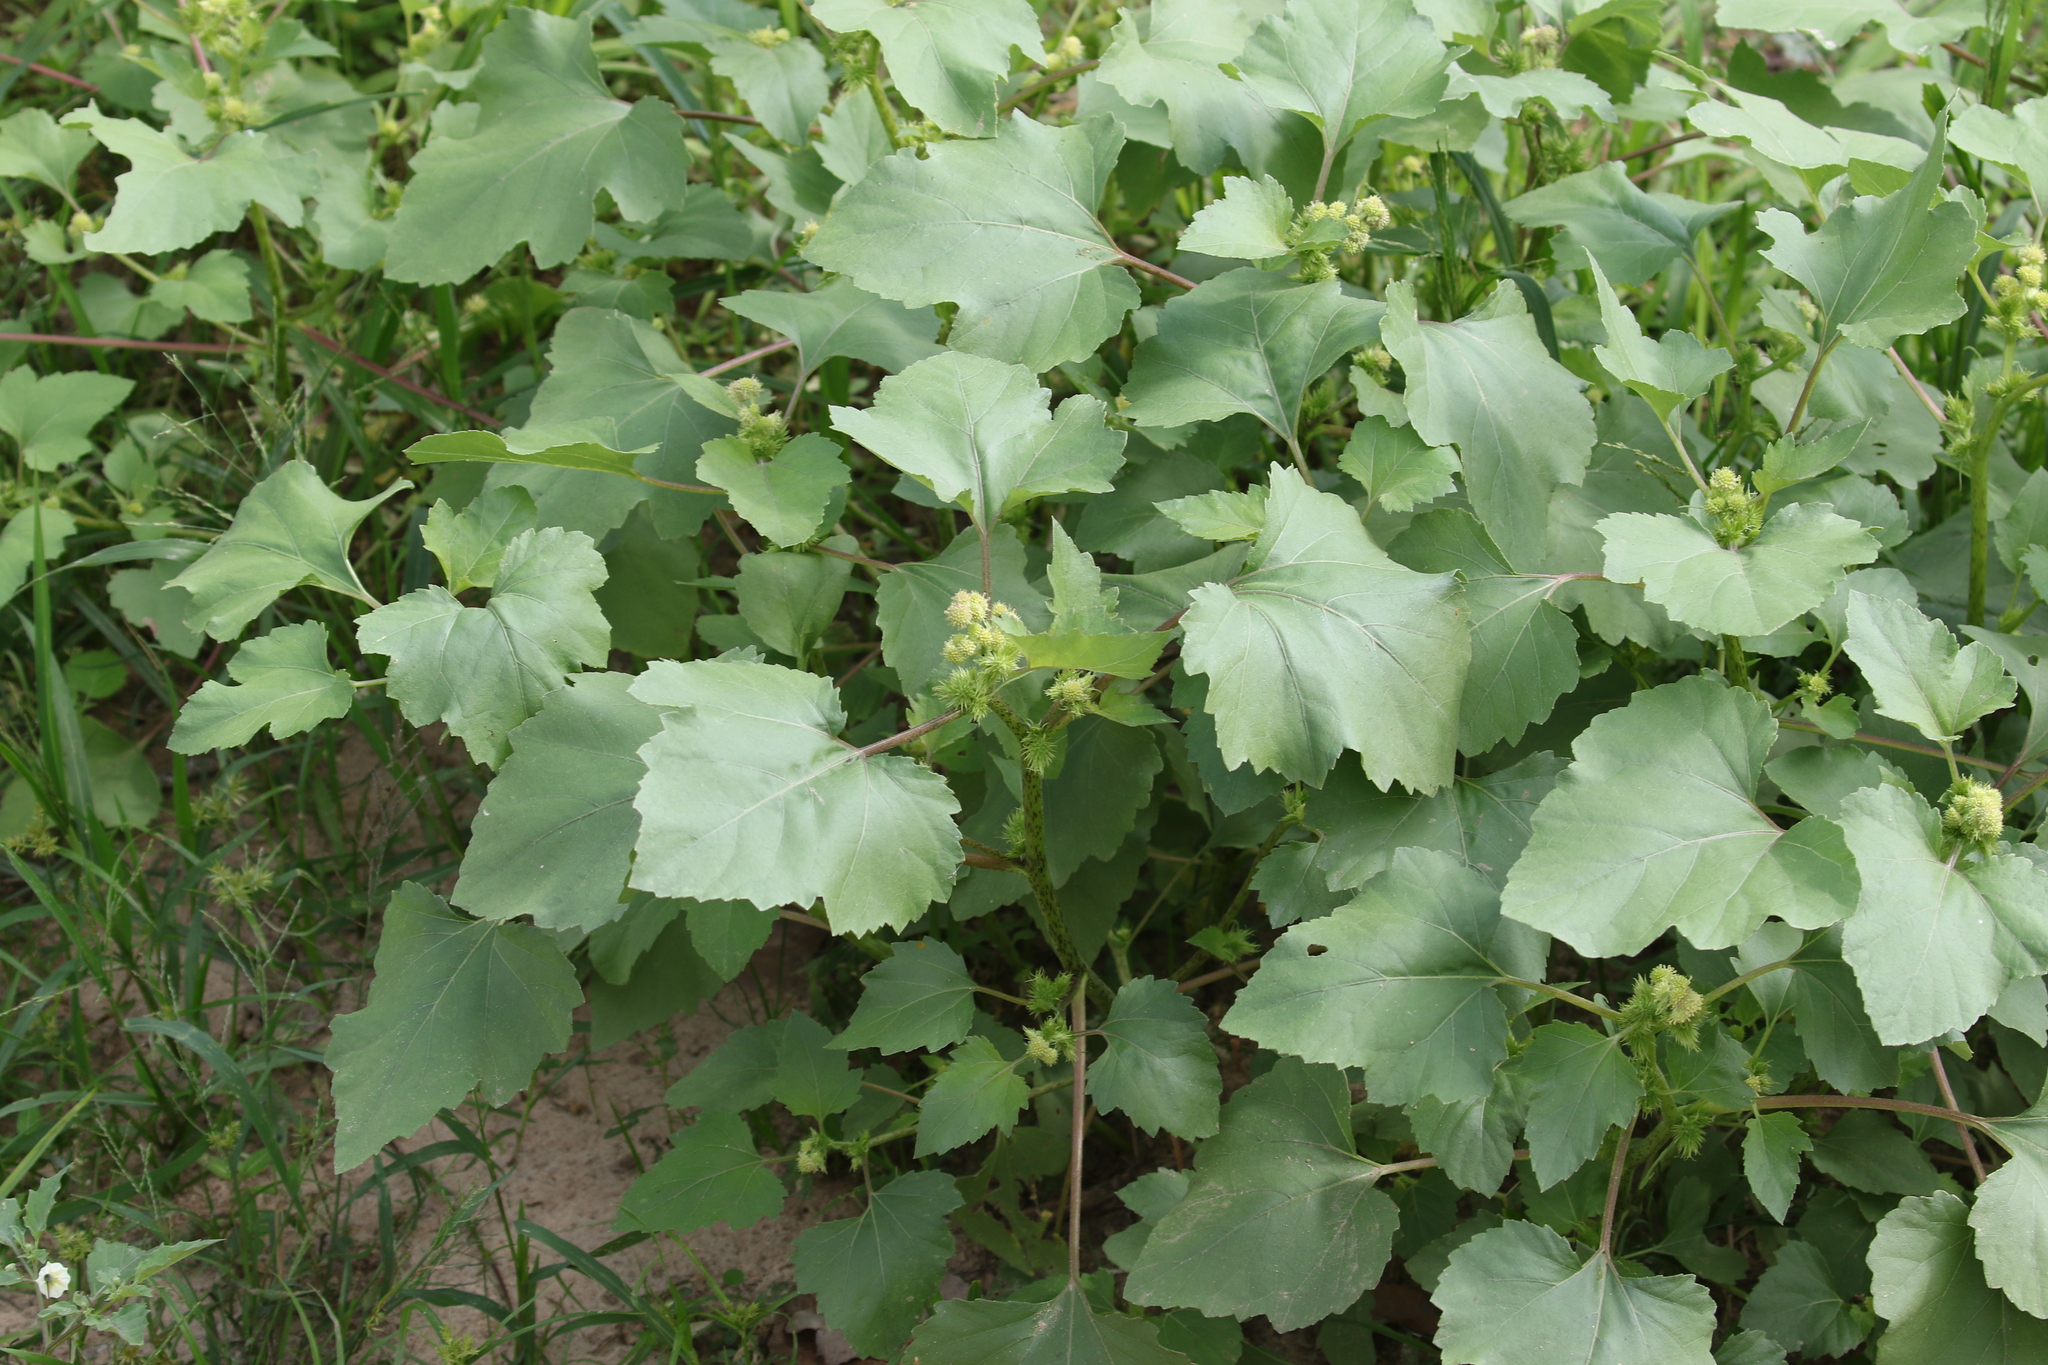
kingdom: Plantae
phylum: Tracheophyta
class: Magnoliopsida
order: Asterales
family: Asteraceae
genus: Xanthium
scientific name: Xanthium strumarium
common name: Rough cocklebur
